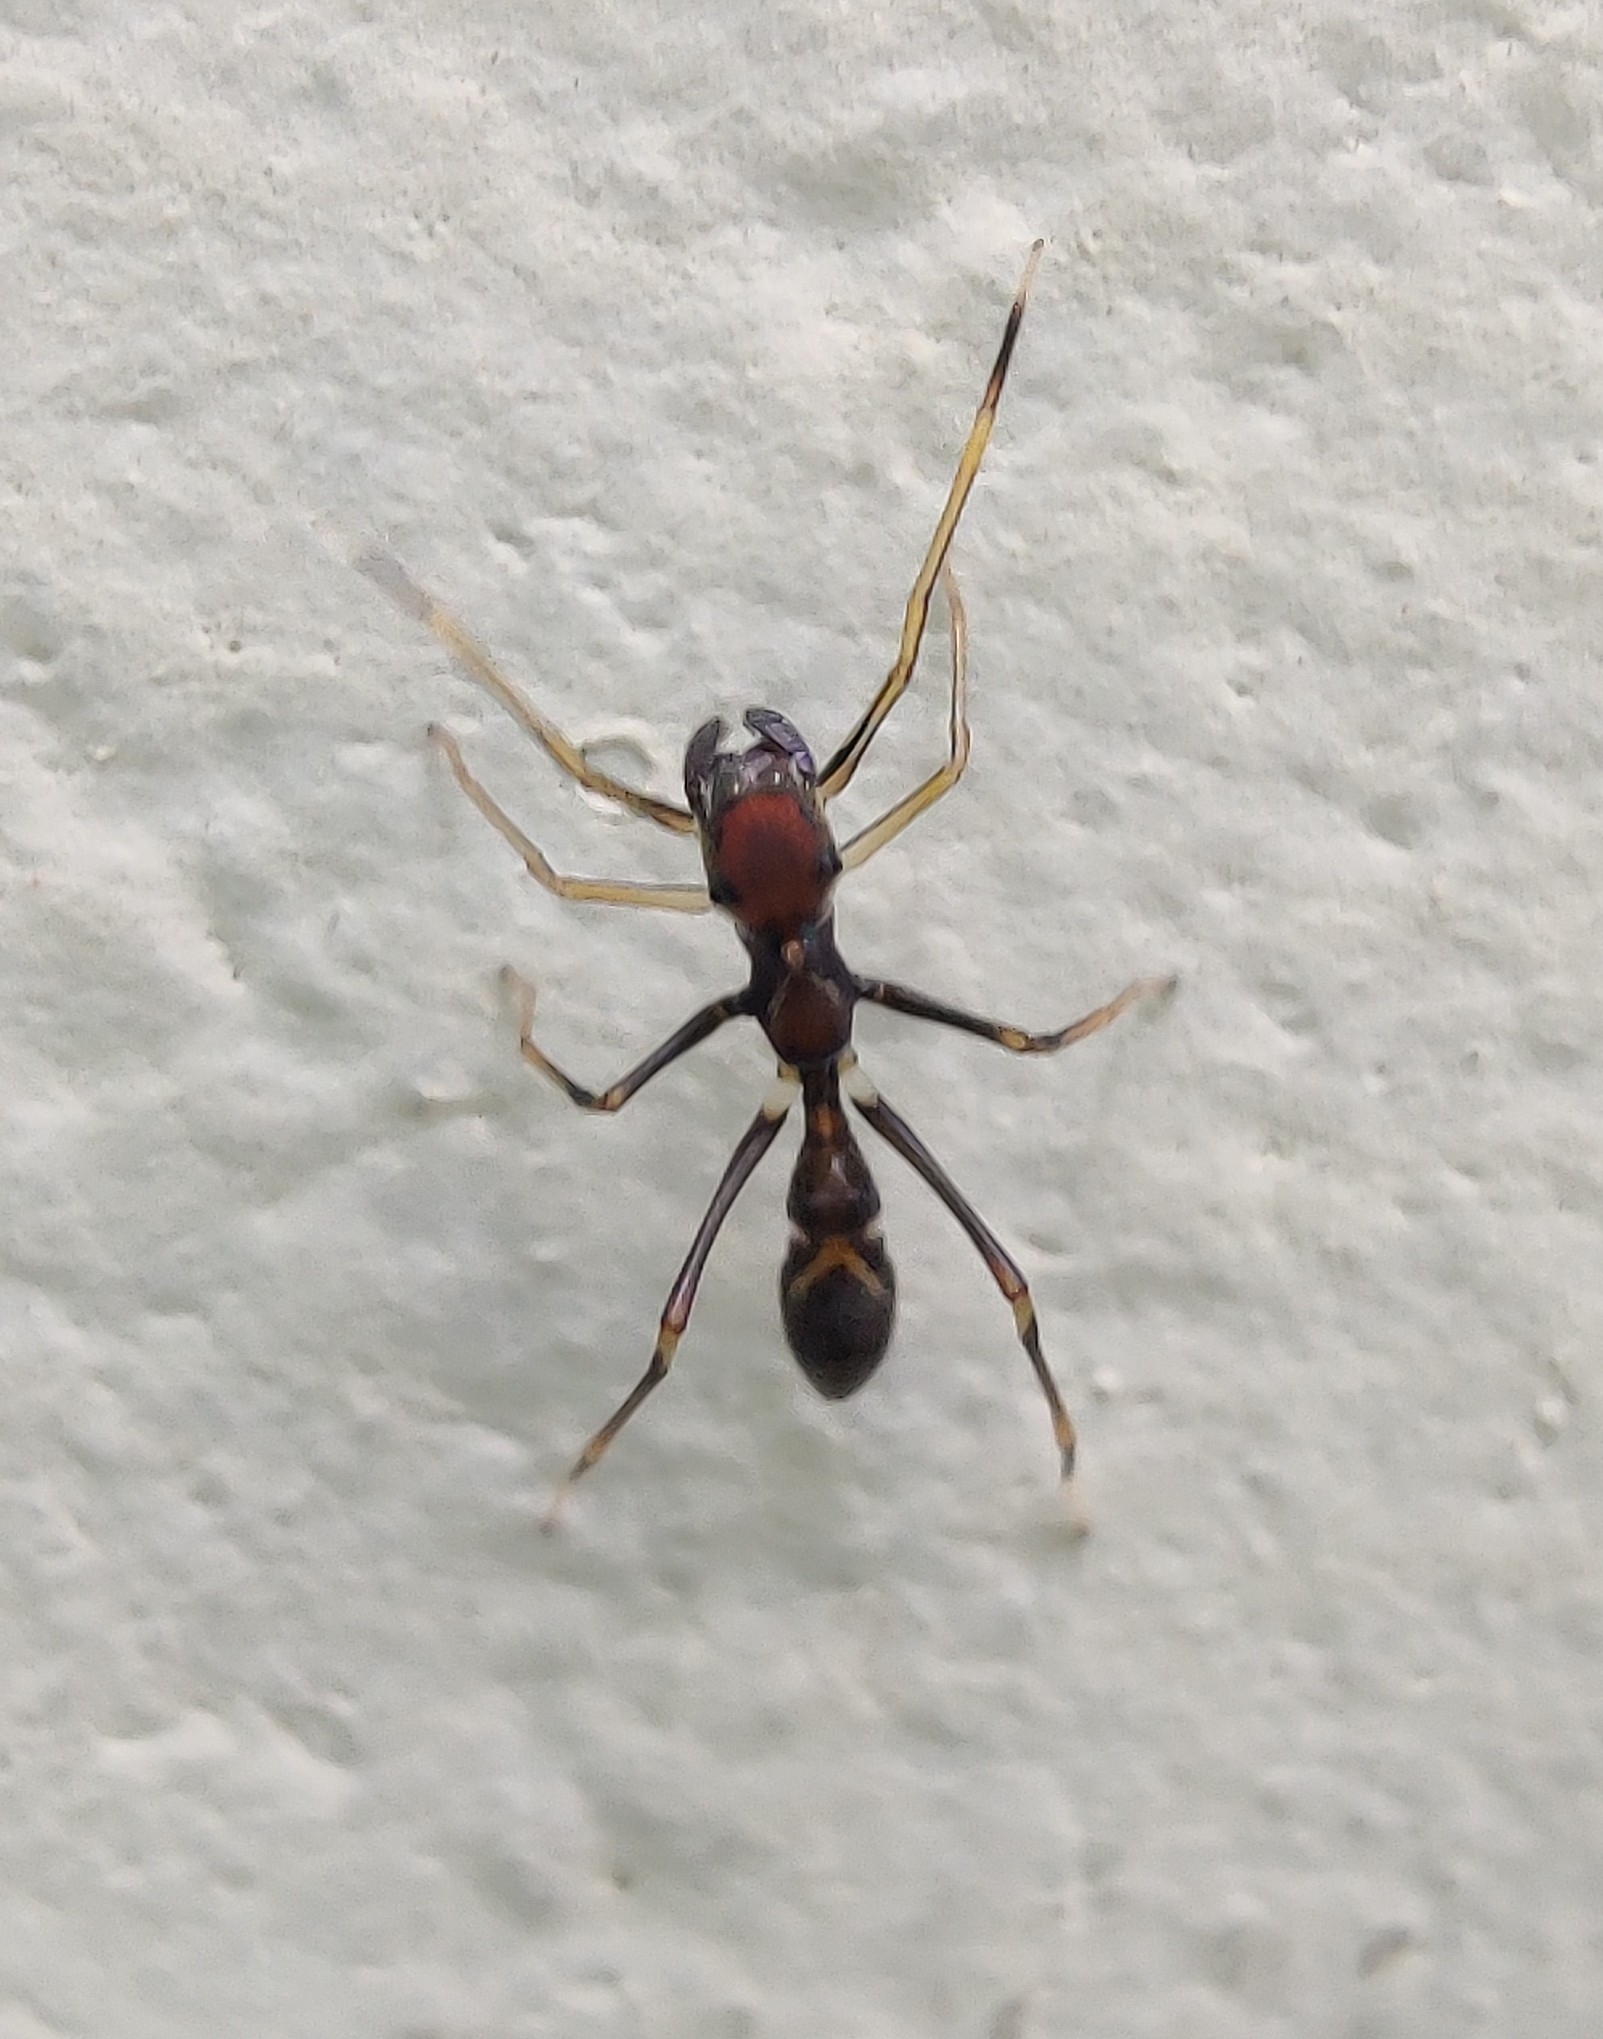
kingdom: Animalia
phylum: Arthropoda
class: Arachnida
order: Araneae
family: Salticidae
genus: Myrmaplata
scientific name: Myrmaplata plataleoides
